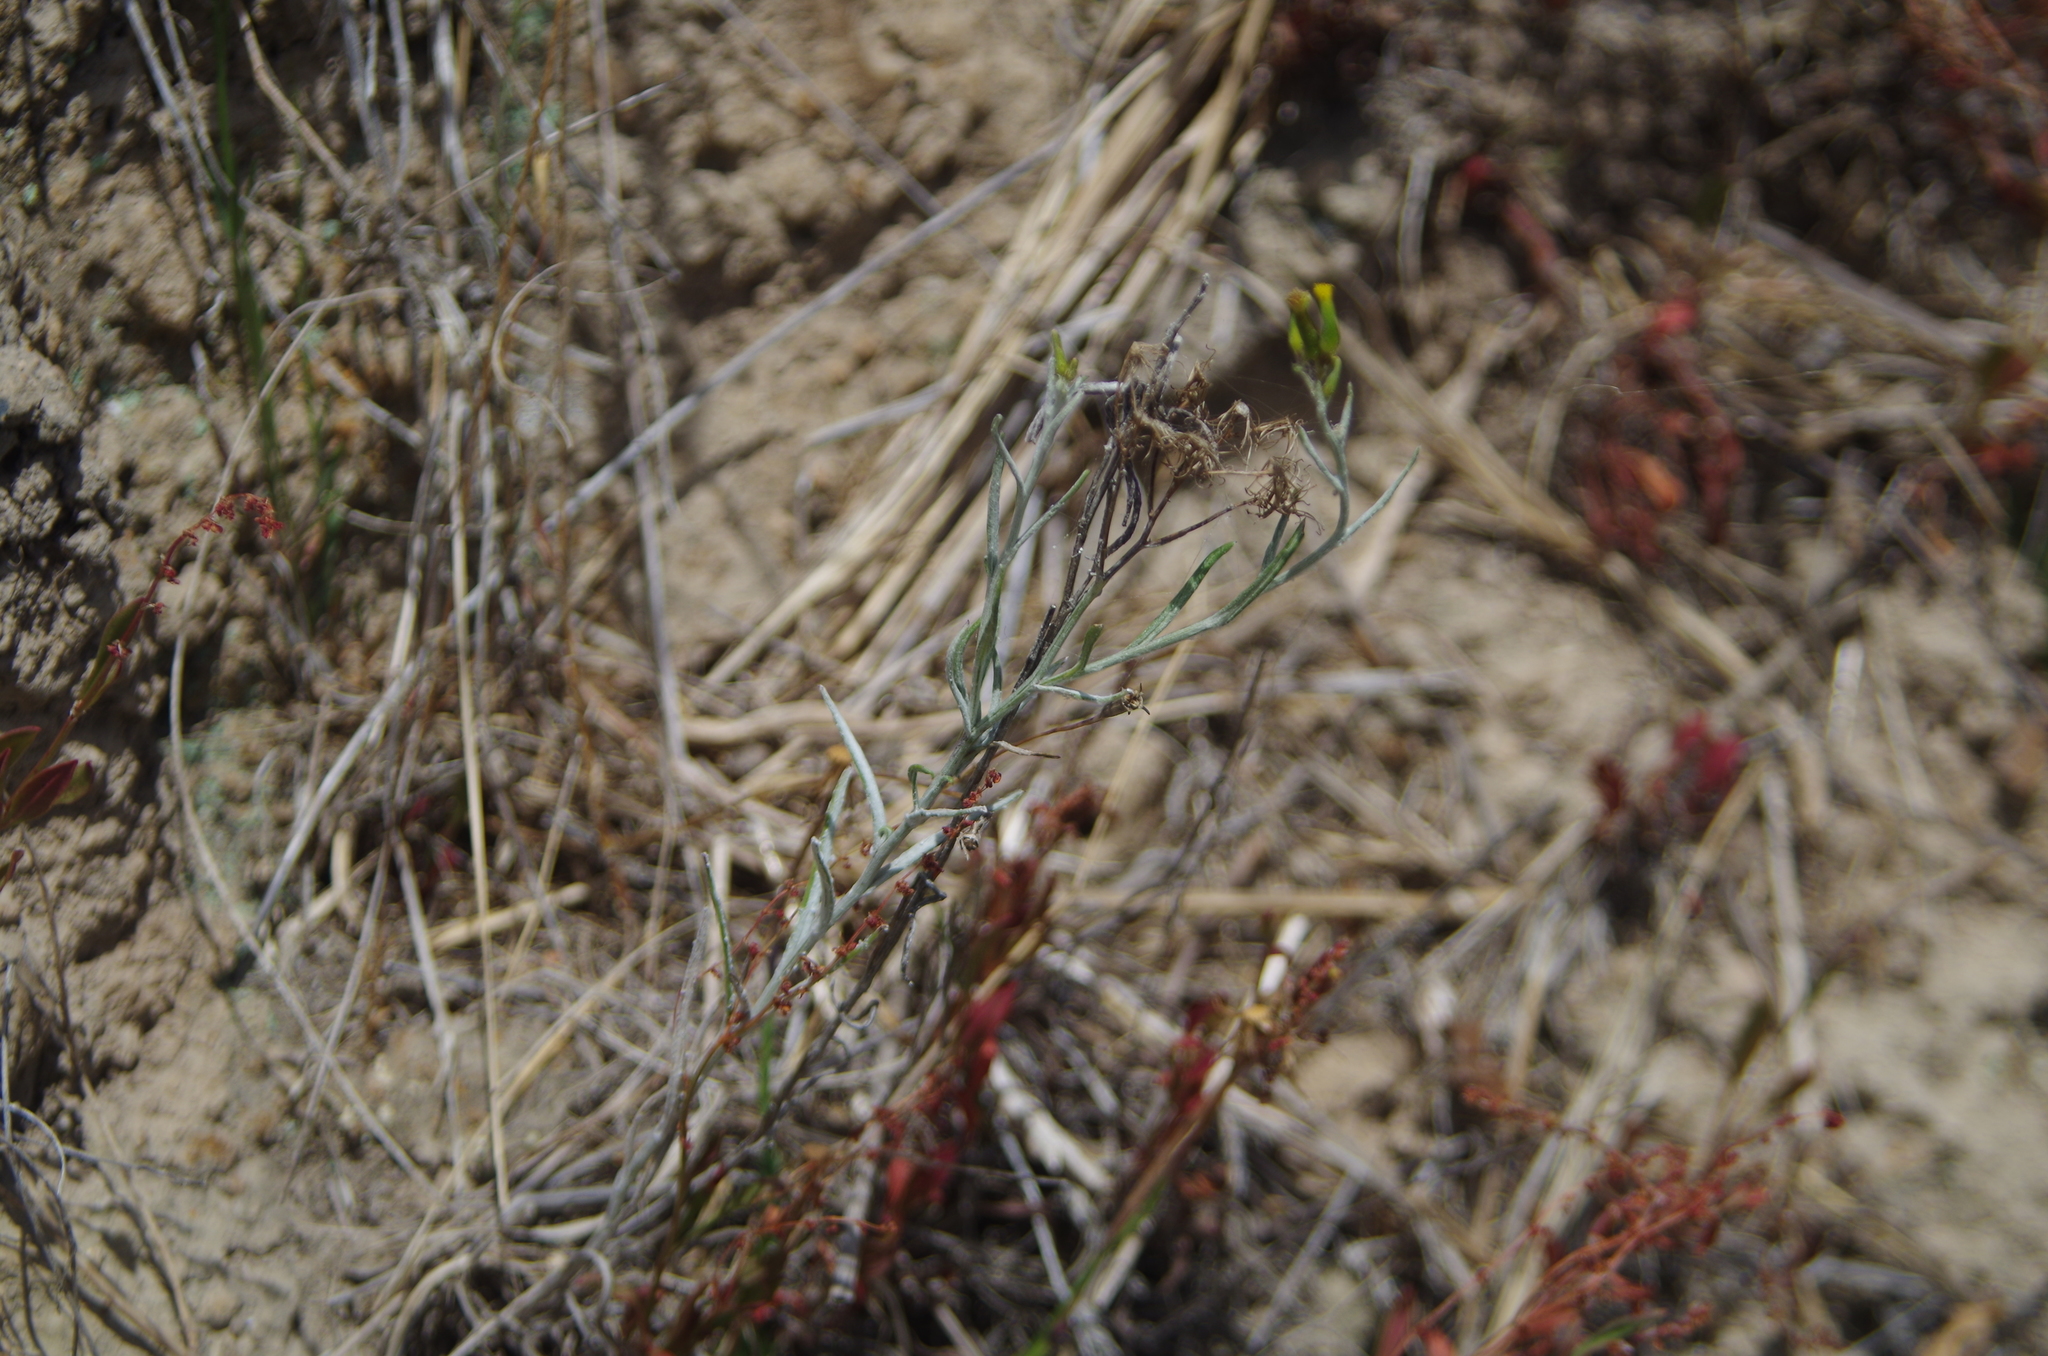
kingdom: Plantae
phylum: Tracheophyta
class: Magnoliopsida
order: Asterales
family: Asteraceae
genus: Senecio
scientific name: Senecio quadridentatus
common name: Cotton fireweed
